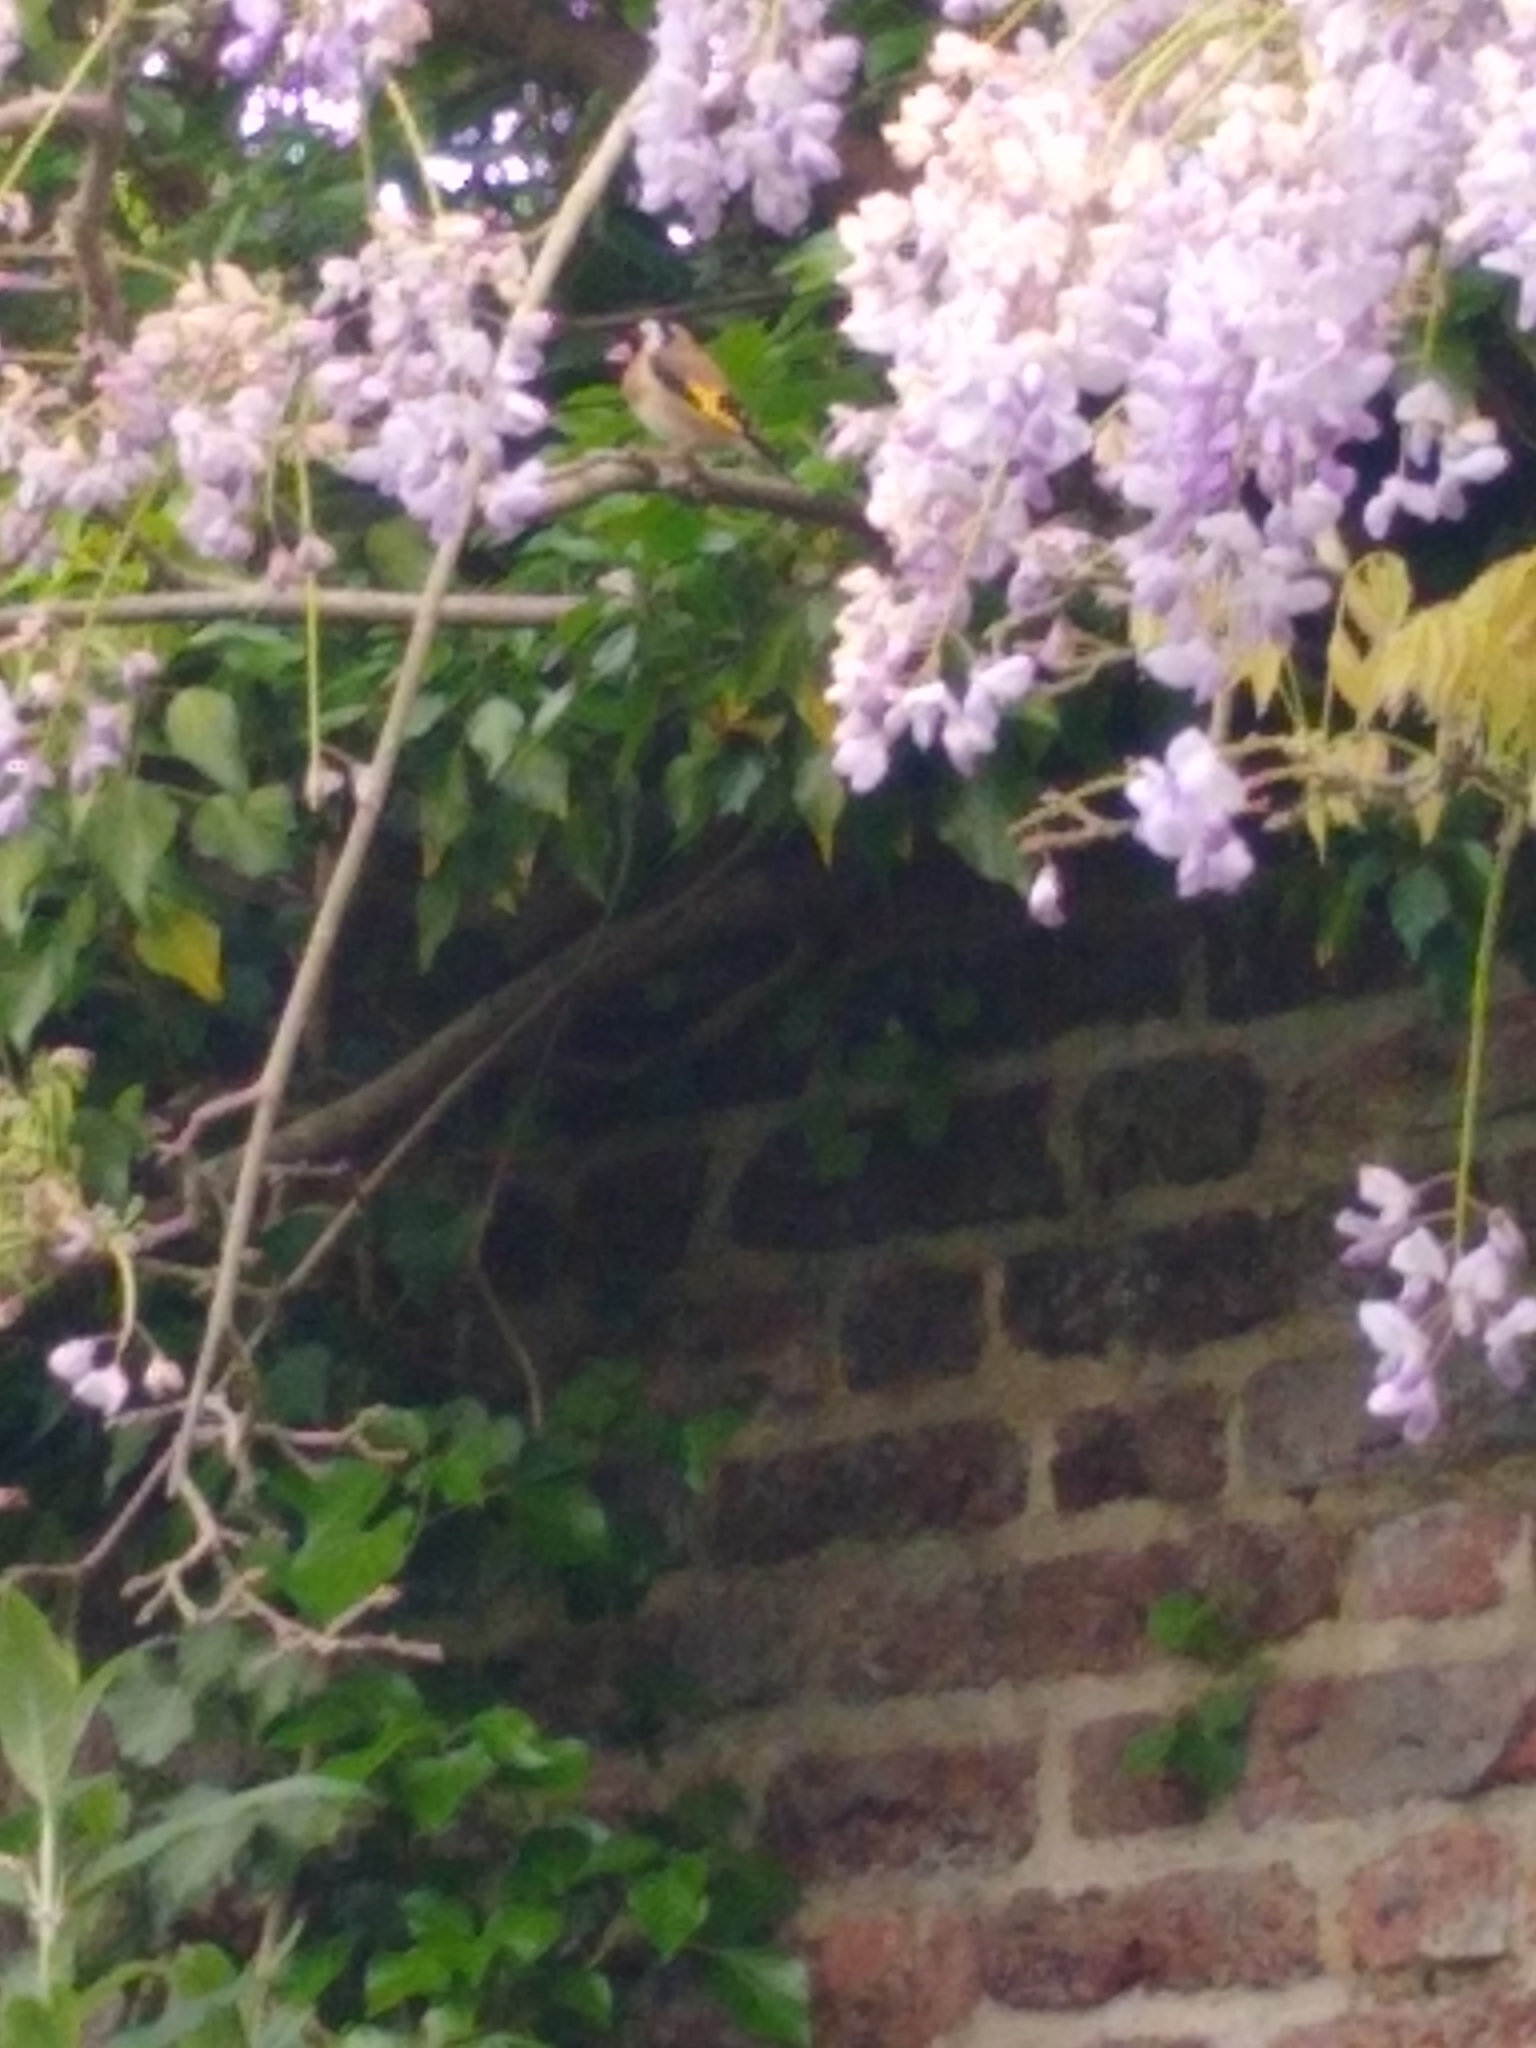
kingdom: Animalia
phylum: Chordata
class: Aves
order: Passeriformes
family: Fringillidae
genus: Carduelis
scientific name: Carduelis carduelis
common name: European goldfinch
